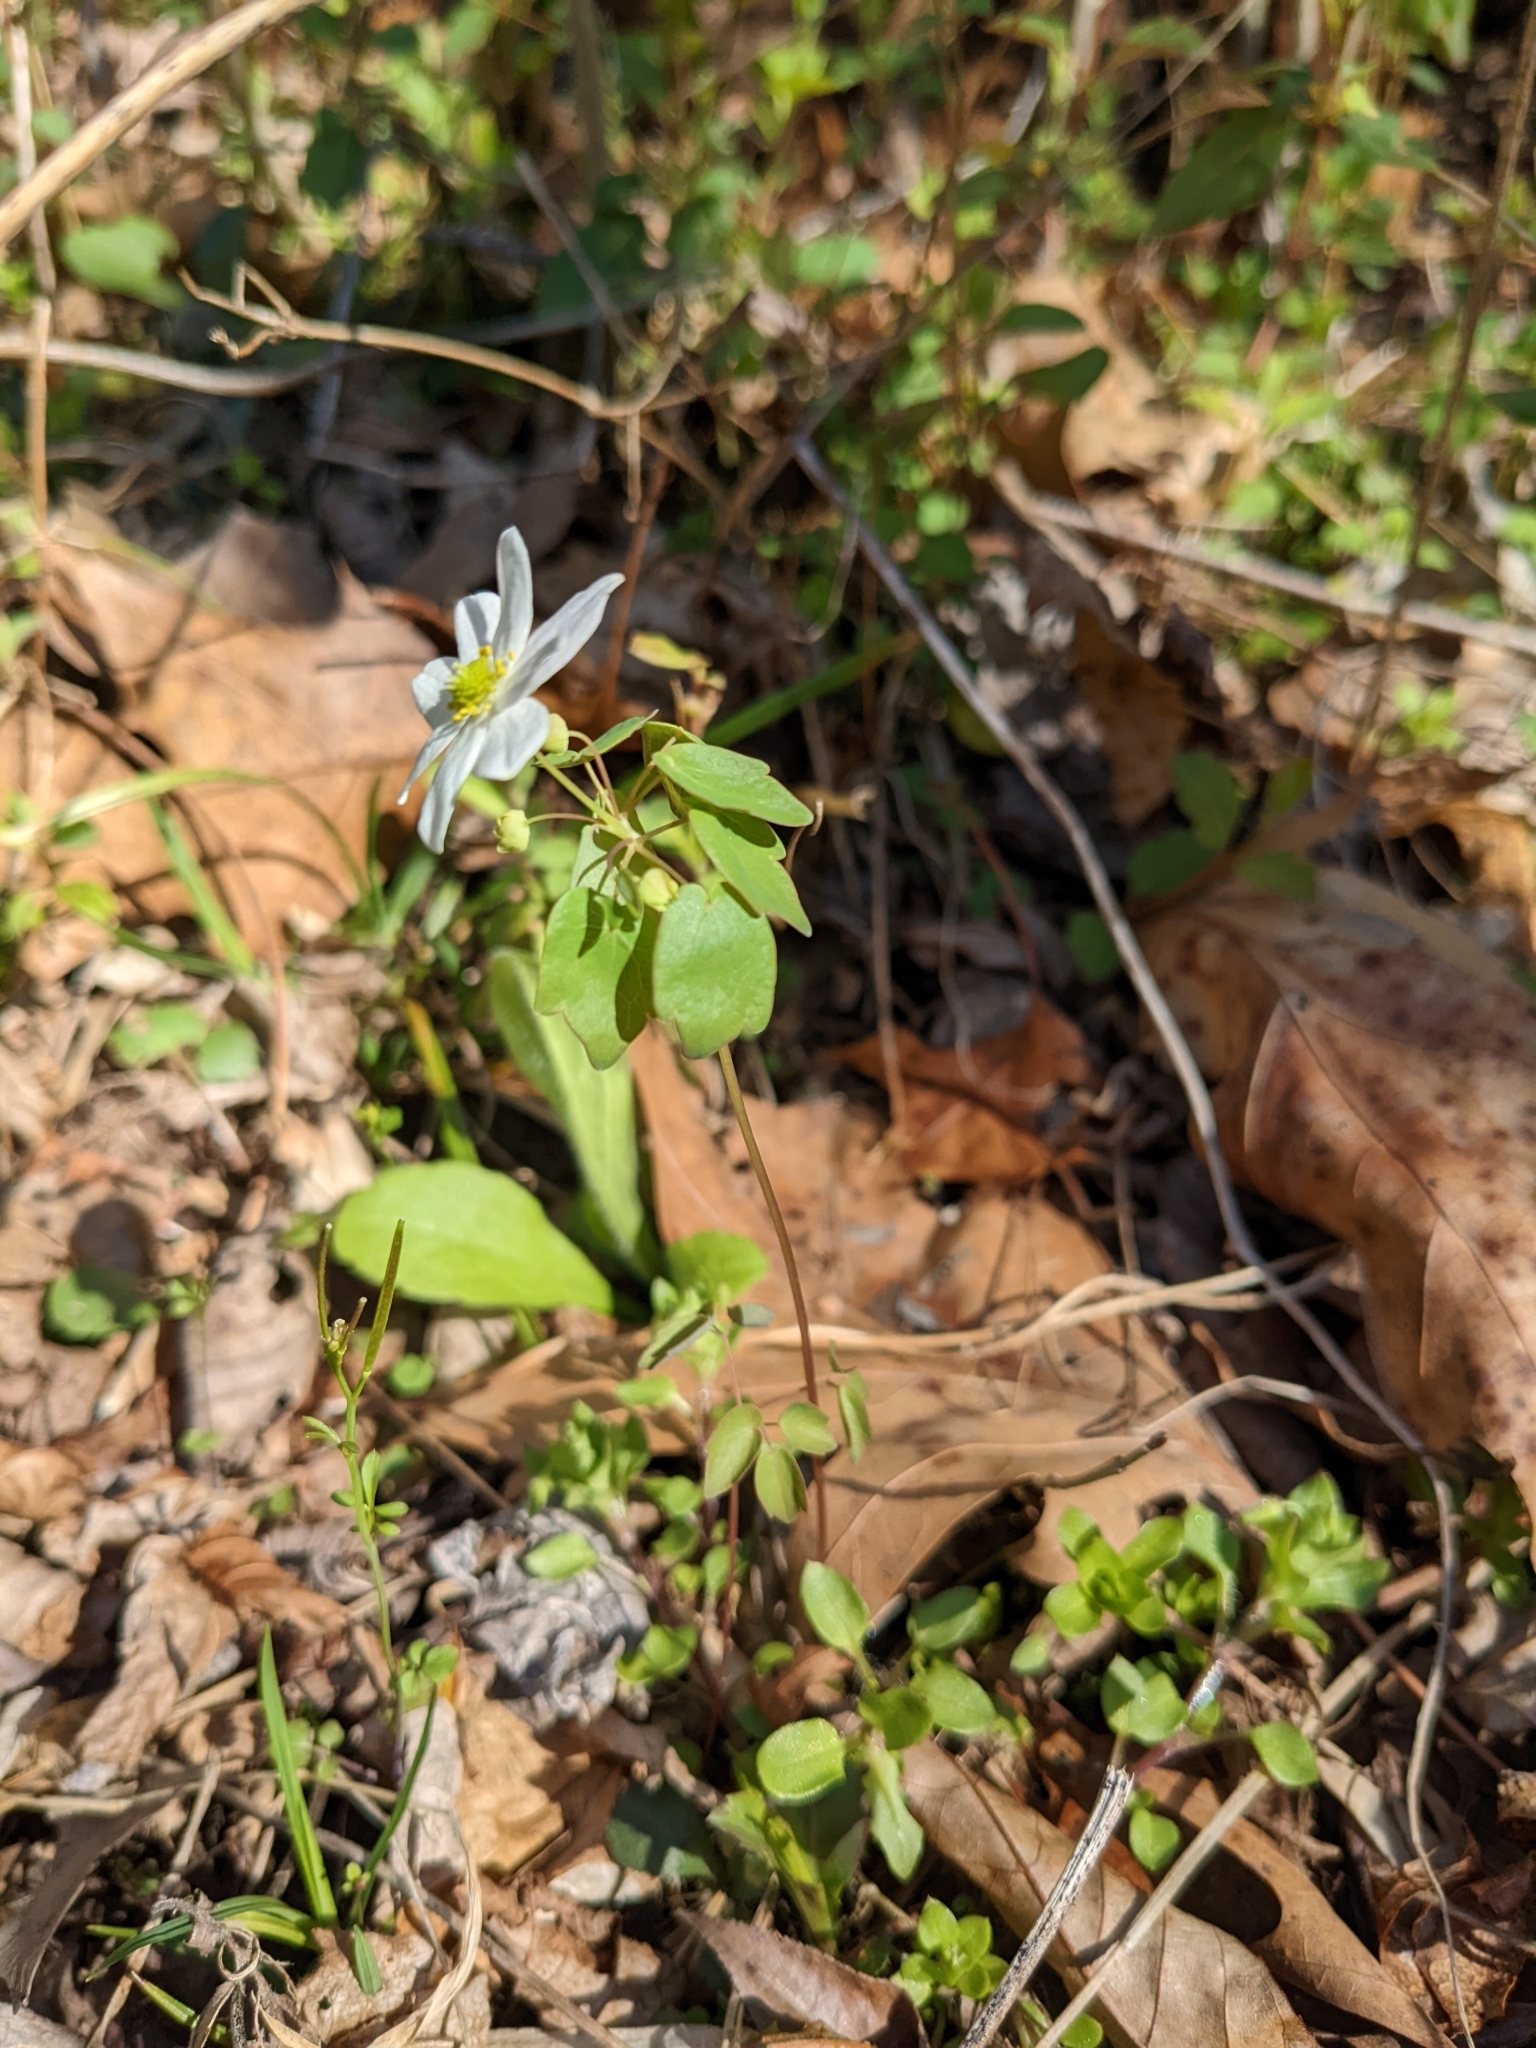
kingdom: Plantae
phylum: Tracheophyta
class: Magnoliopsida
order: Ranunculales
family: Ranunculaceae
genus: Thalictrum
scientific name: Thalictrum thalictroides
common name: Rue-anemone
